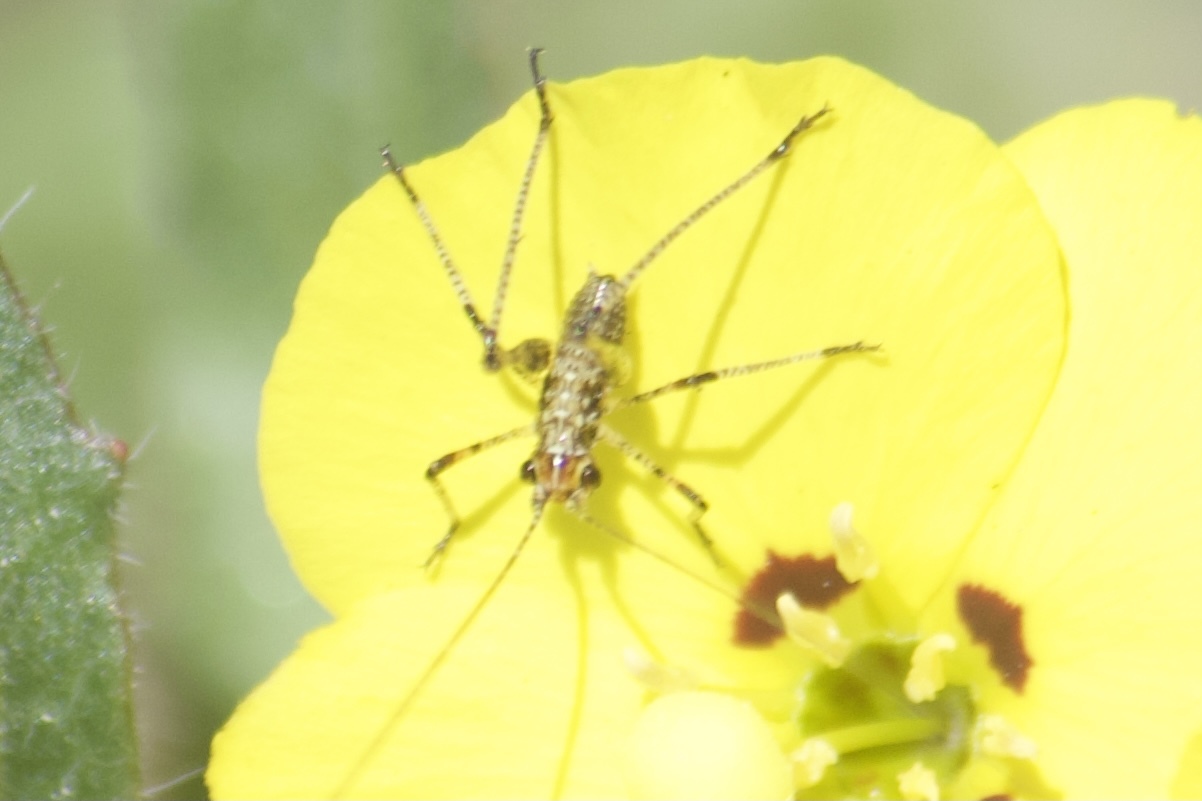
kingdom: Animalia
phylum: Arthropoda
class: Insecta
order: Orthoptera
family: Tettigoniidae
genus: Phaneroptera
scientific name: Phaneroptera nana
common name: Southern sickle bush-cricket
